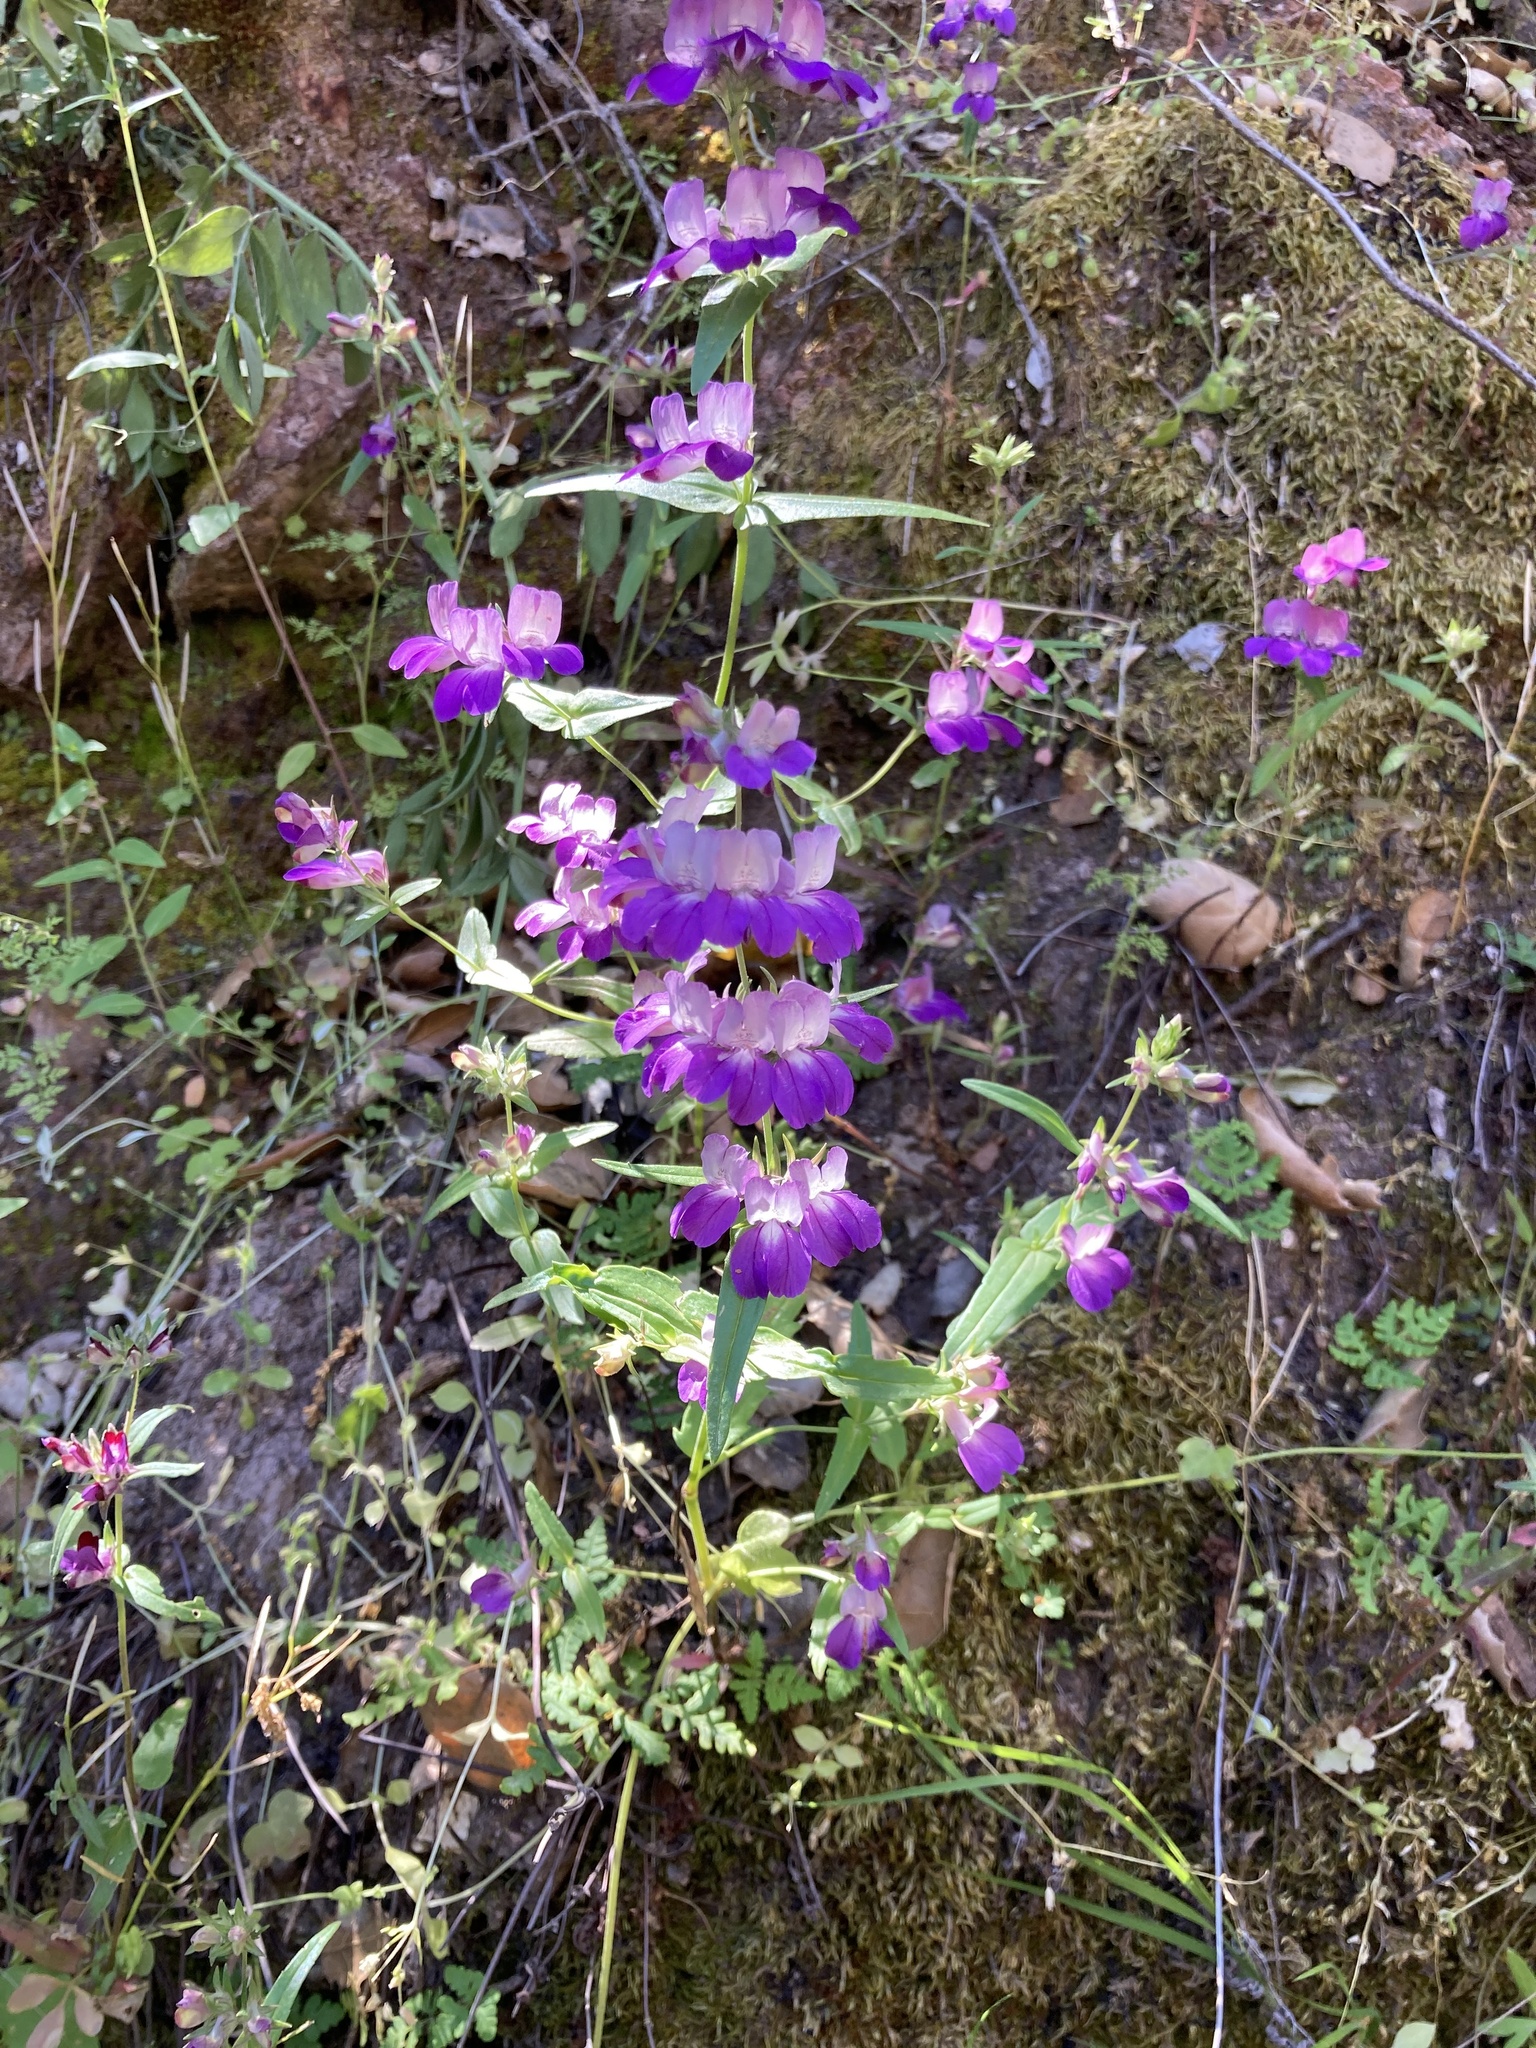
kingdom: Plantae
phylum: Tracheophyta
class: Magnoliopsida
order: Lamiales
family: Plantaginaceae
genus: Collinsia
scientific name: Collinsia heterophylla
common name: Chinese-houses
